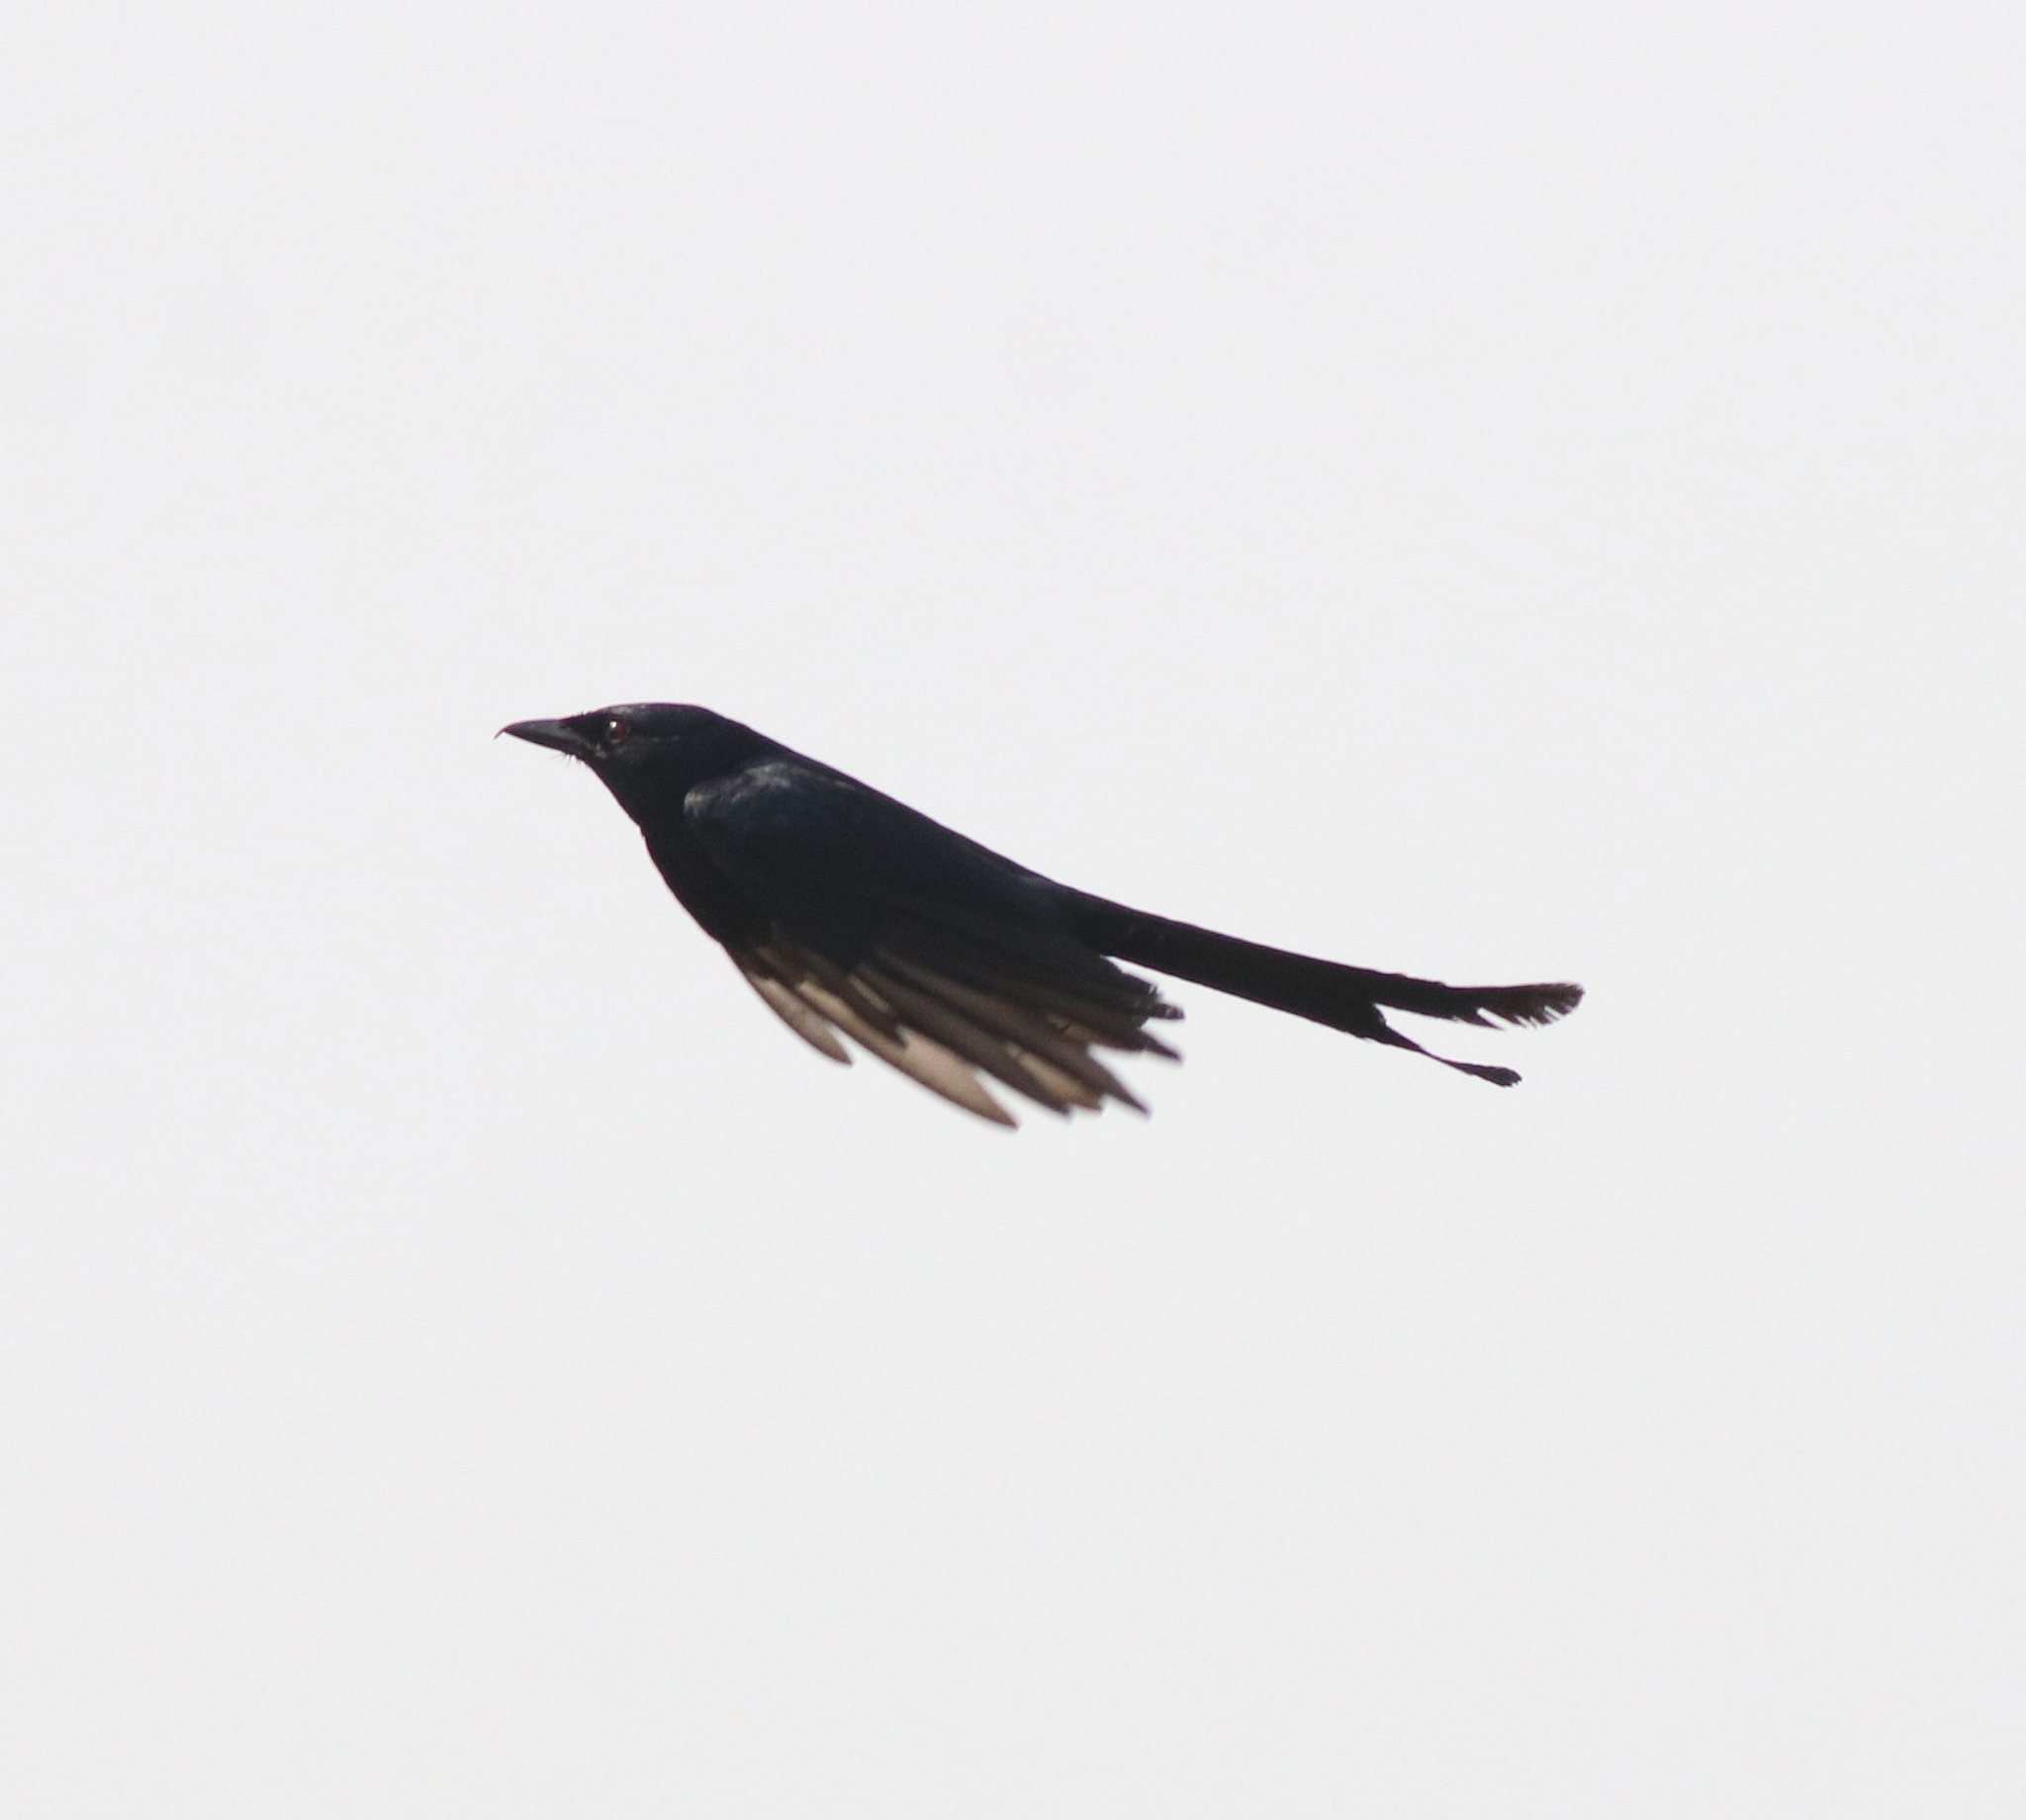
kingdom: Animalia
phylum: Chordata
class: Aves
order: Passeriformes
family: Dicruridae
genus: Dicrurus
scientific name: Dicrurus macrocercus
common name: Black drongo
